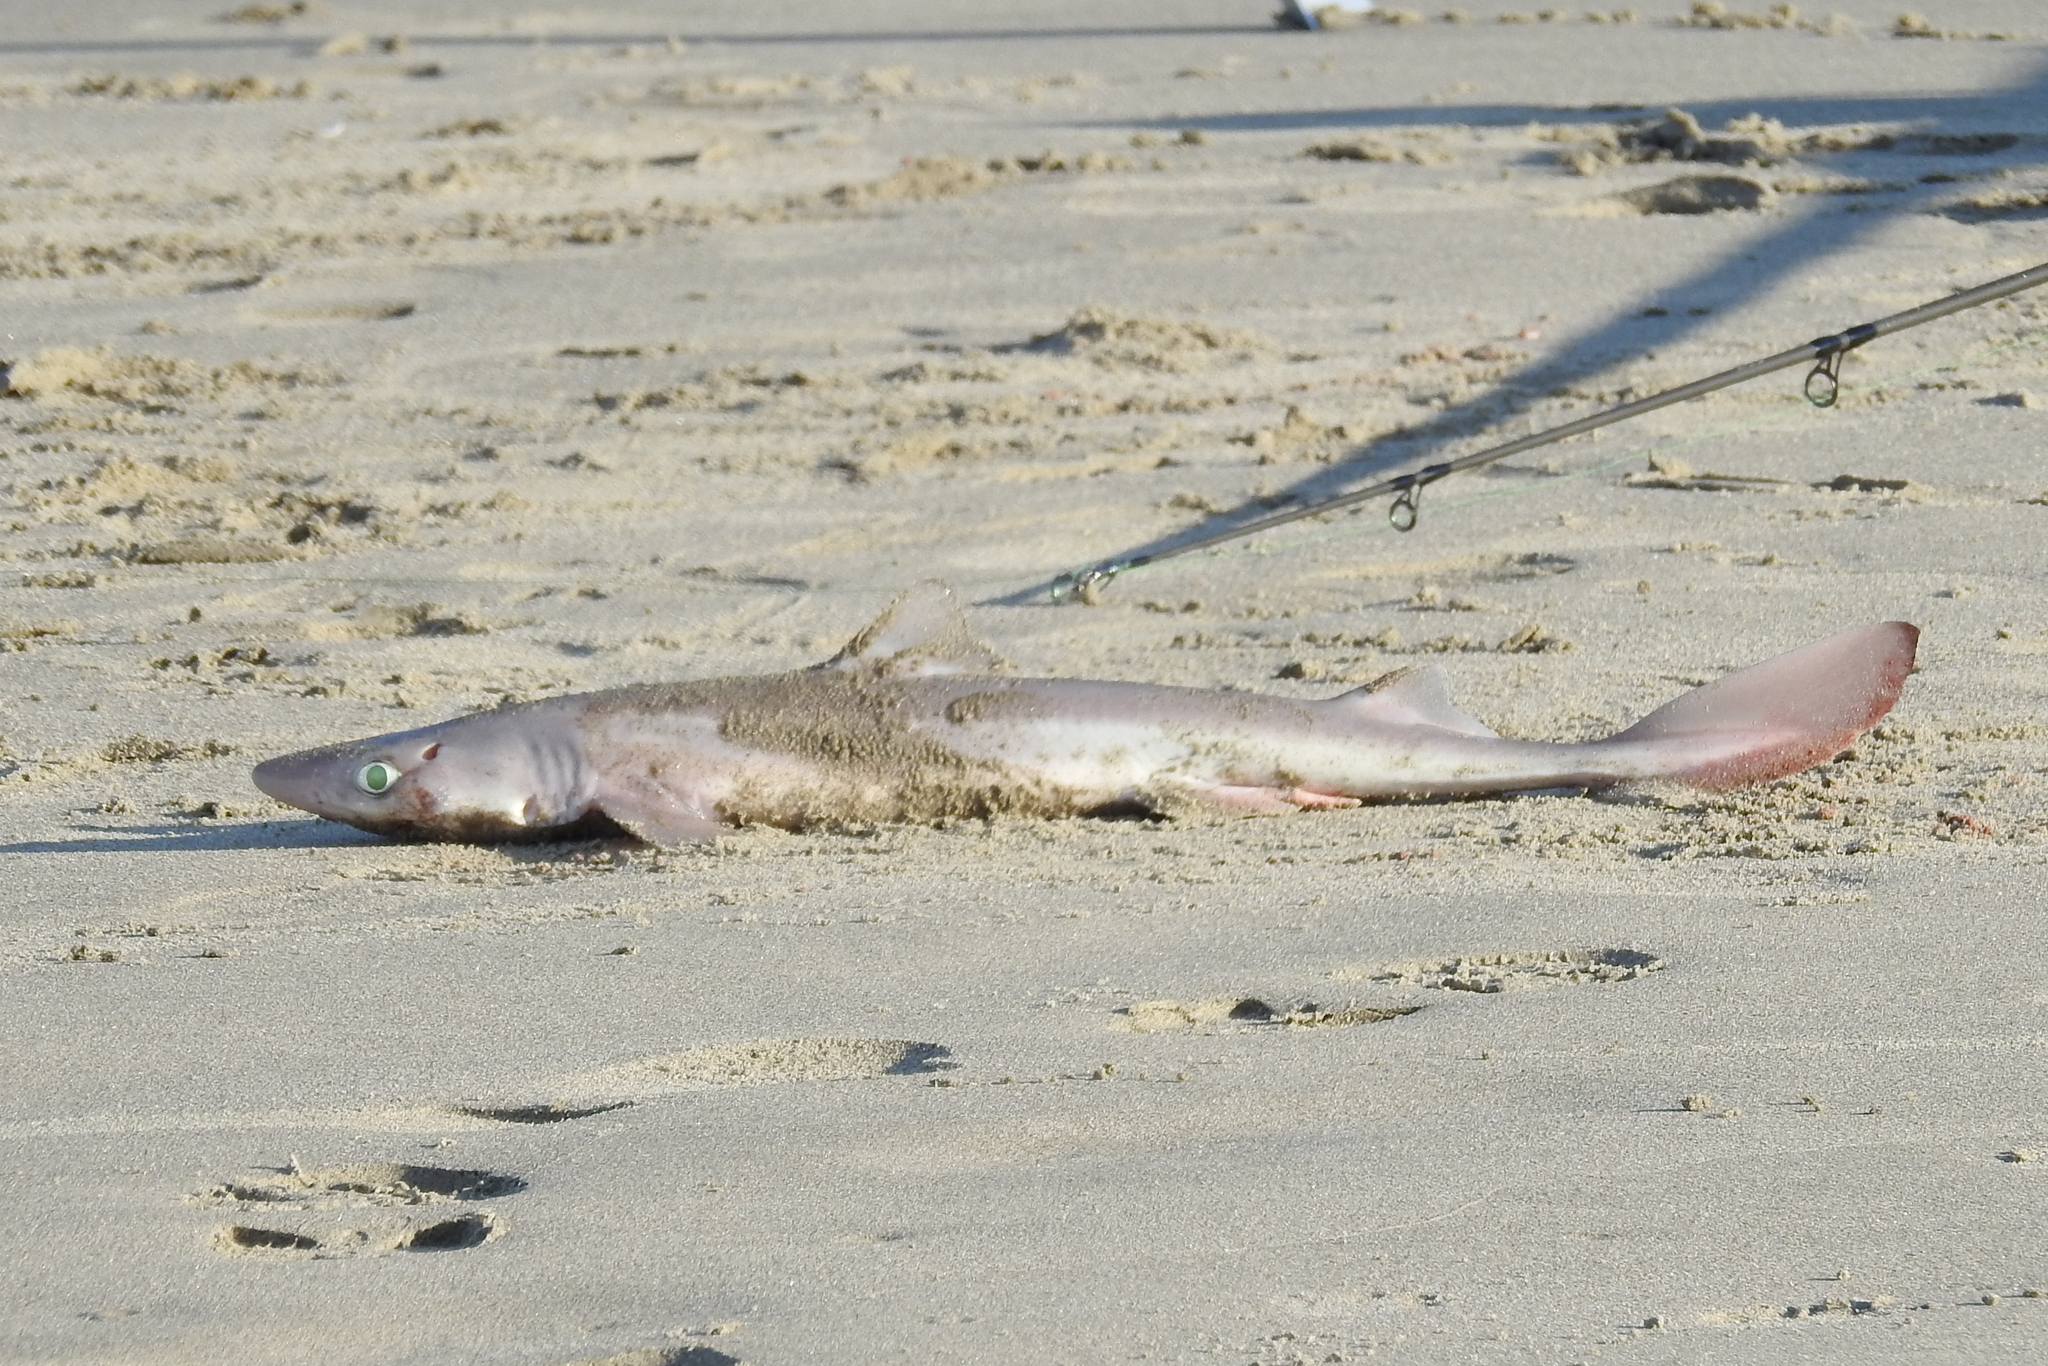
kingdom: Animalia
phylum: Chordata
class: Elasmobranchii
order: Squaliformes
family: Squalidae
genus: Squalus
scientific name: Squalus acanthias
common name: Spurdog
